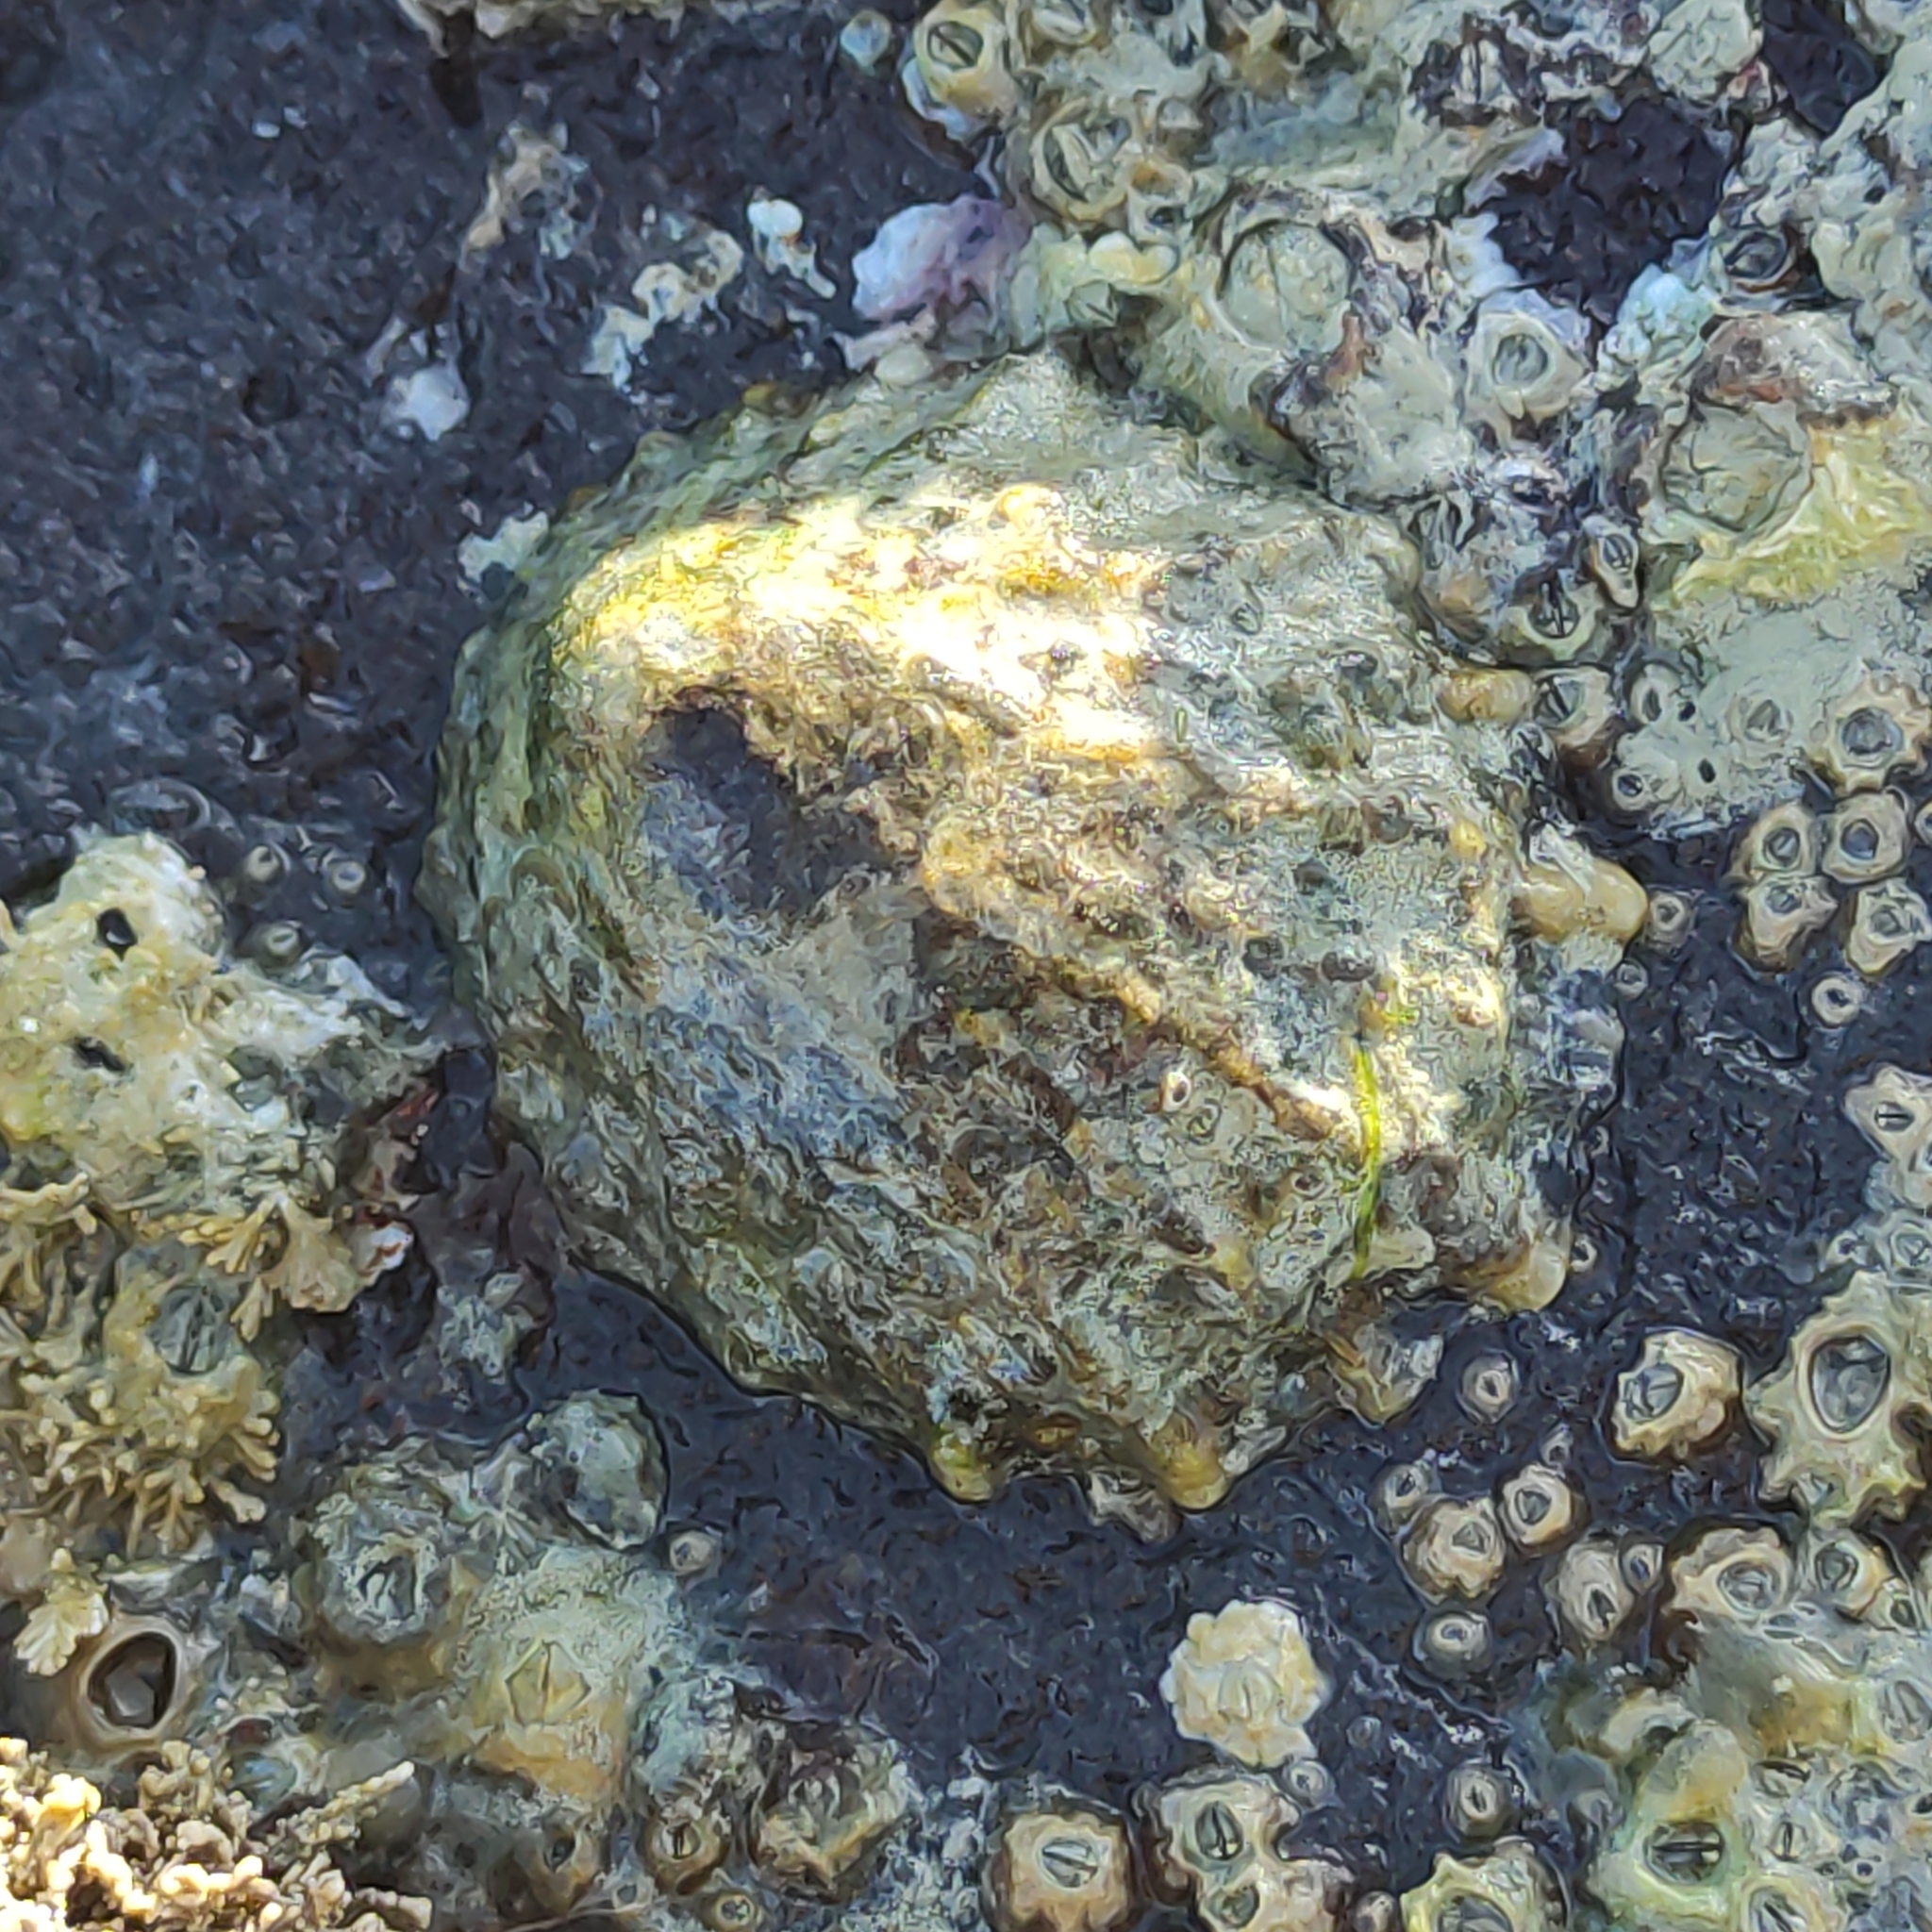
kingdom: Animalia
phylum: Mollusca
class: Gastropoda
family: Nacellidae
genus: Cellana
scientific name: Cellana ornata
